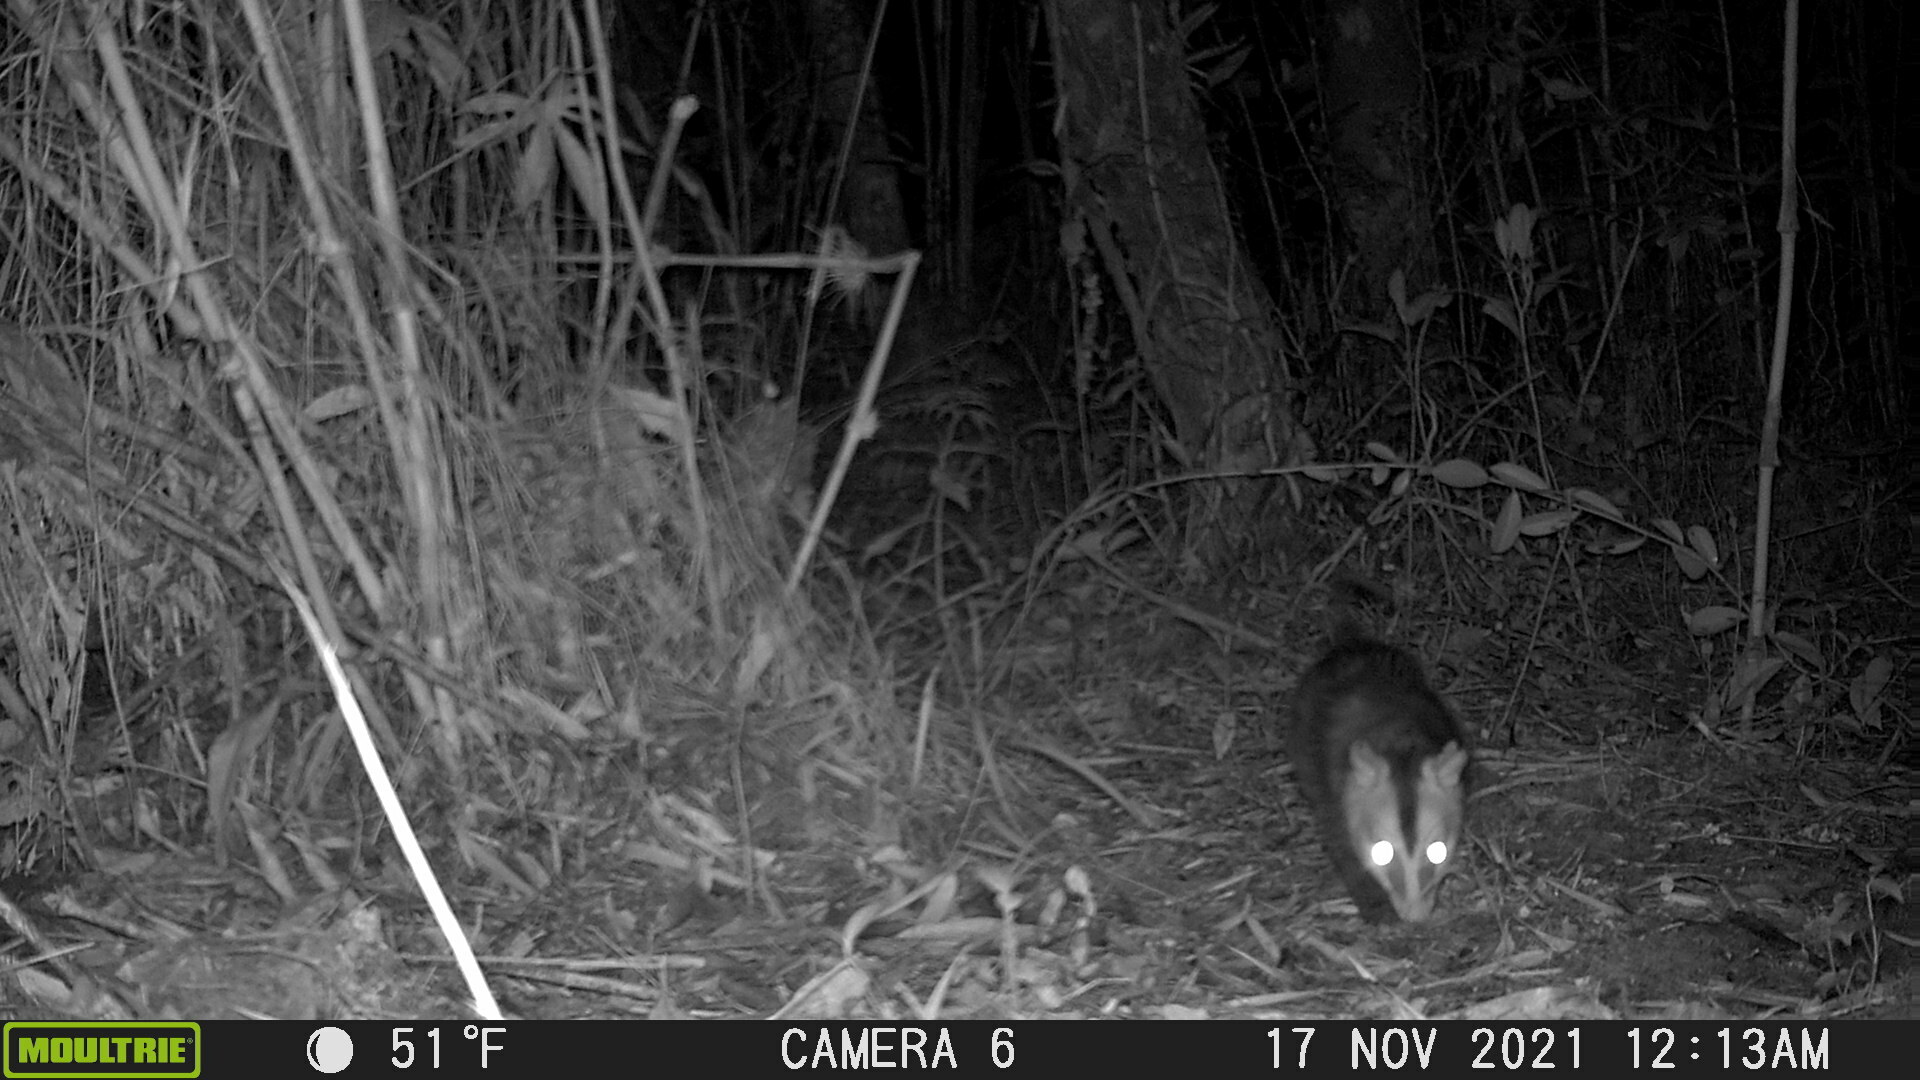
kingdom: Animalia
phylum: Chordata
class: Mammalia
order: Didelphimorphia
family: Didelphidae
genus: Didelphis
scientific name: Didelphis pernigra
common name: Andean white-eared opossum
